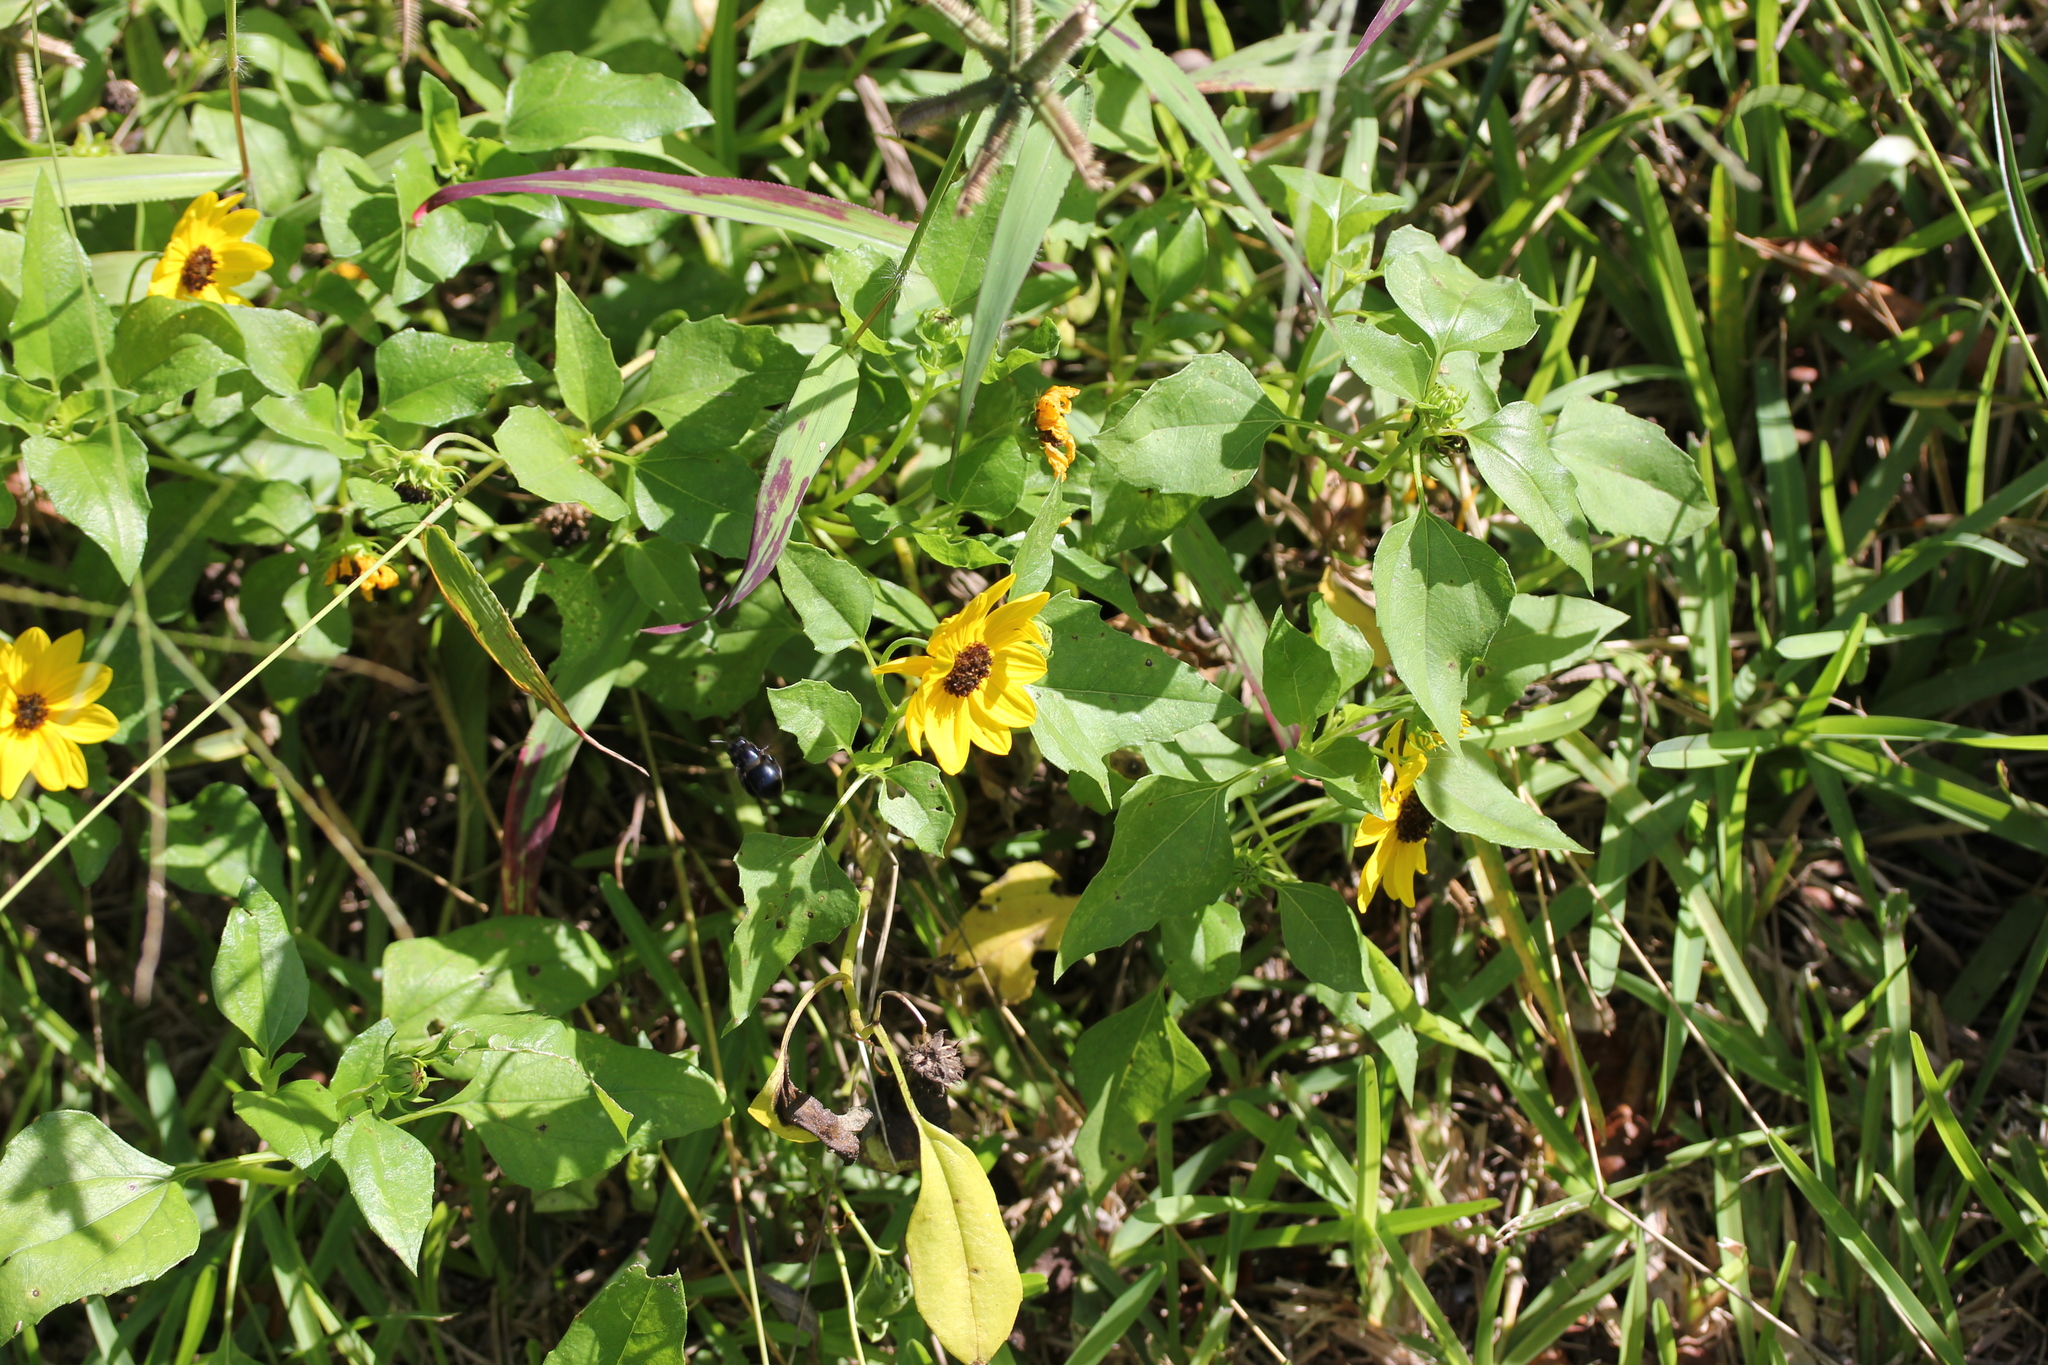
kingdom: Plantae
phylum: Tracheophyta
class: Magnoliopsida
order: Asterales
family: Asteraceae
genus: Helianthus
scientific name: Helianthus debilis
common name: Weak sunflower
